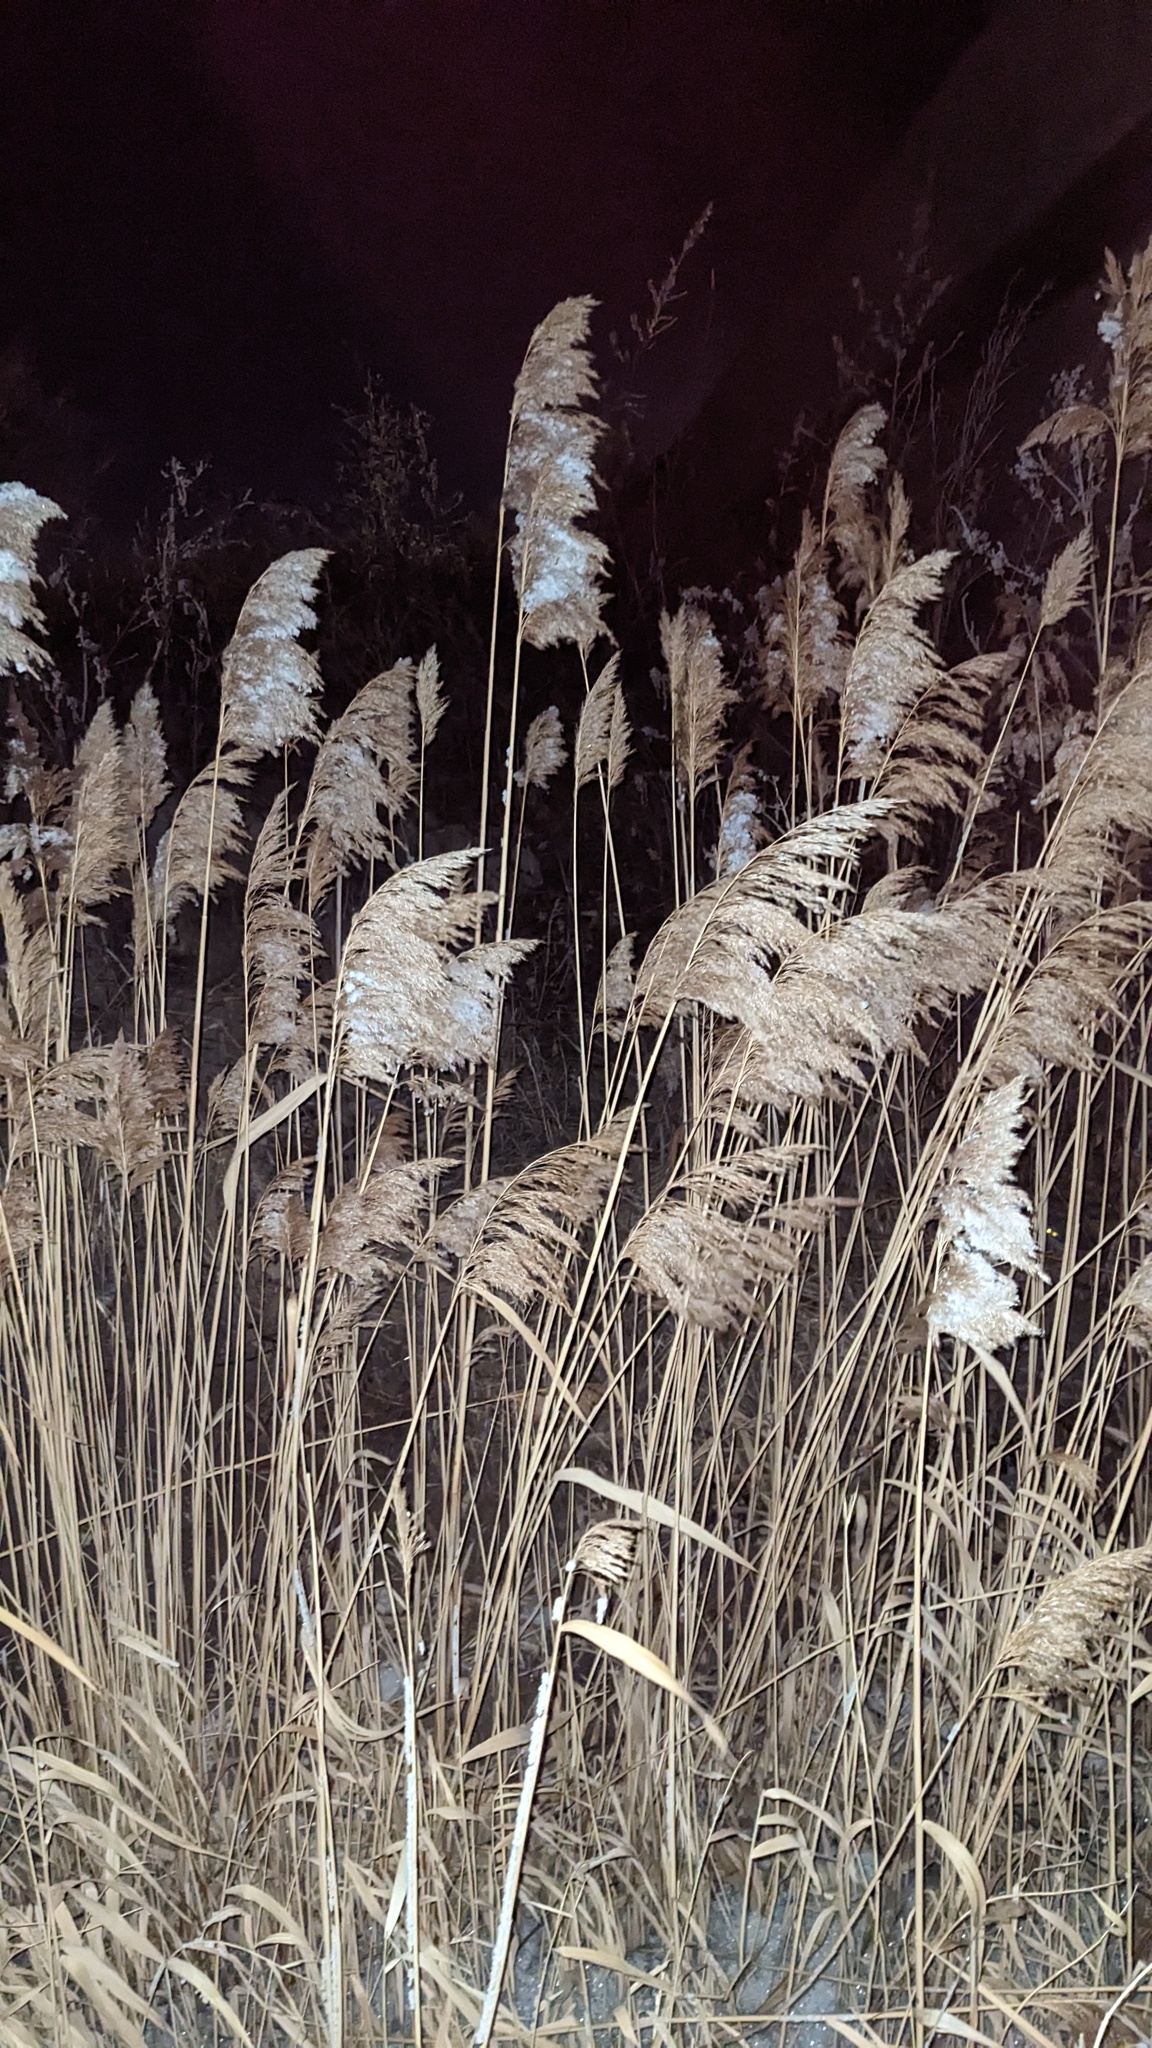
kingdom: Plantae
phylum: Tracheophyta
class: Liliopsida
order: Poales
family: Poaceae
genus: Phragmites
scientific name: Phragmites australis
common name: Common reed
